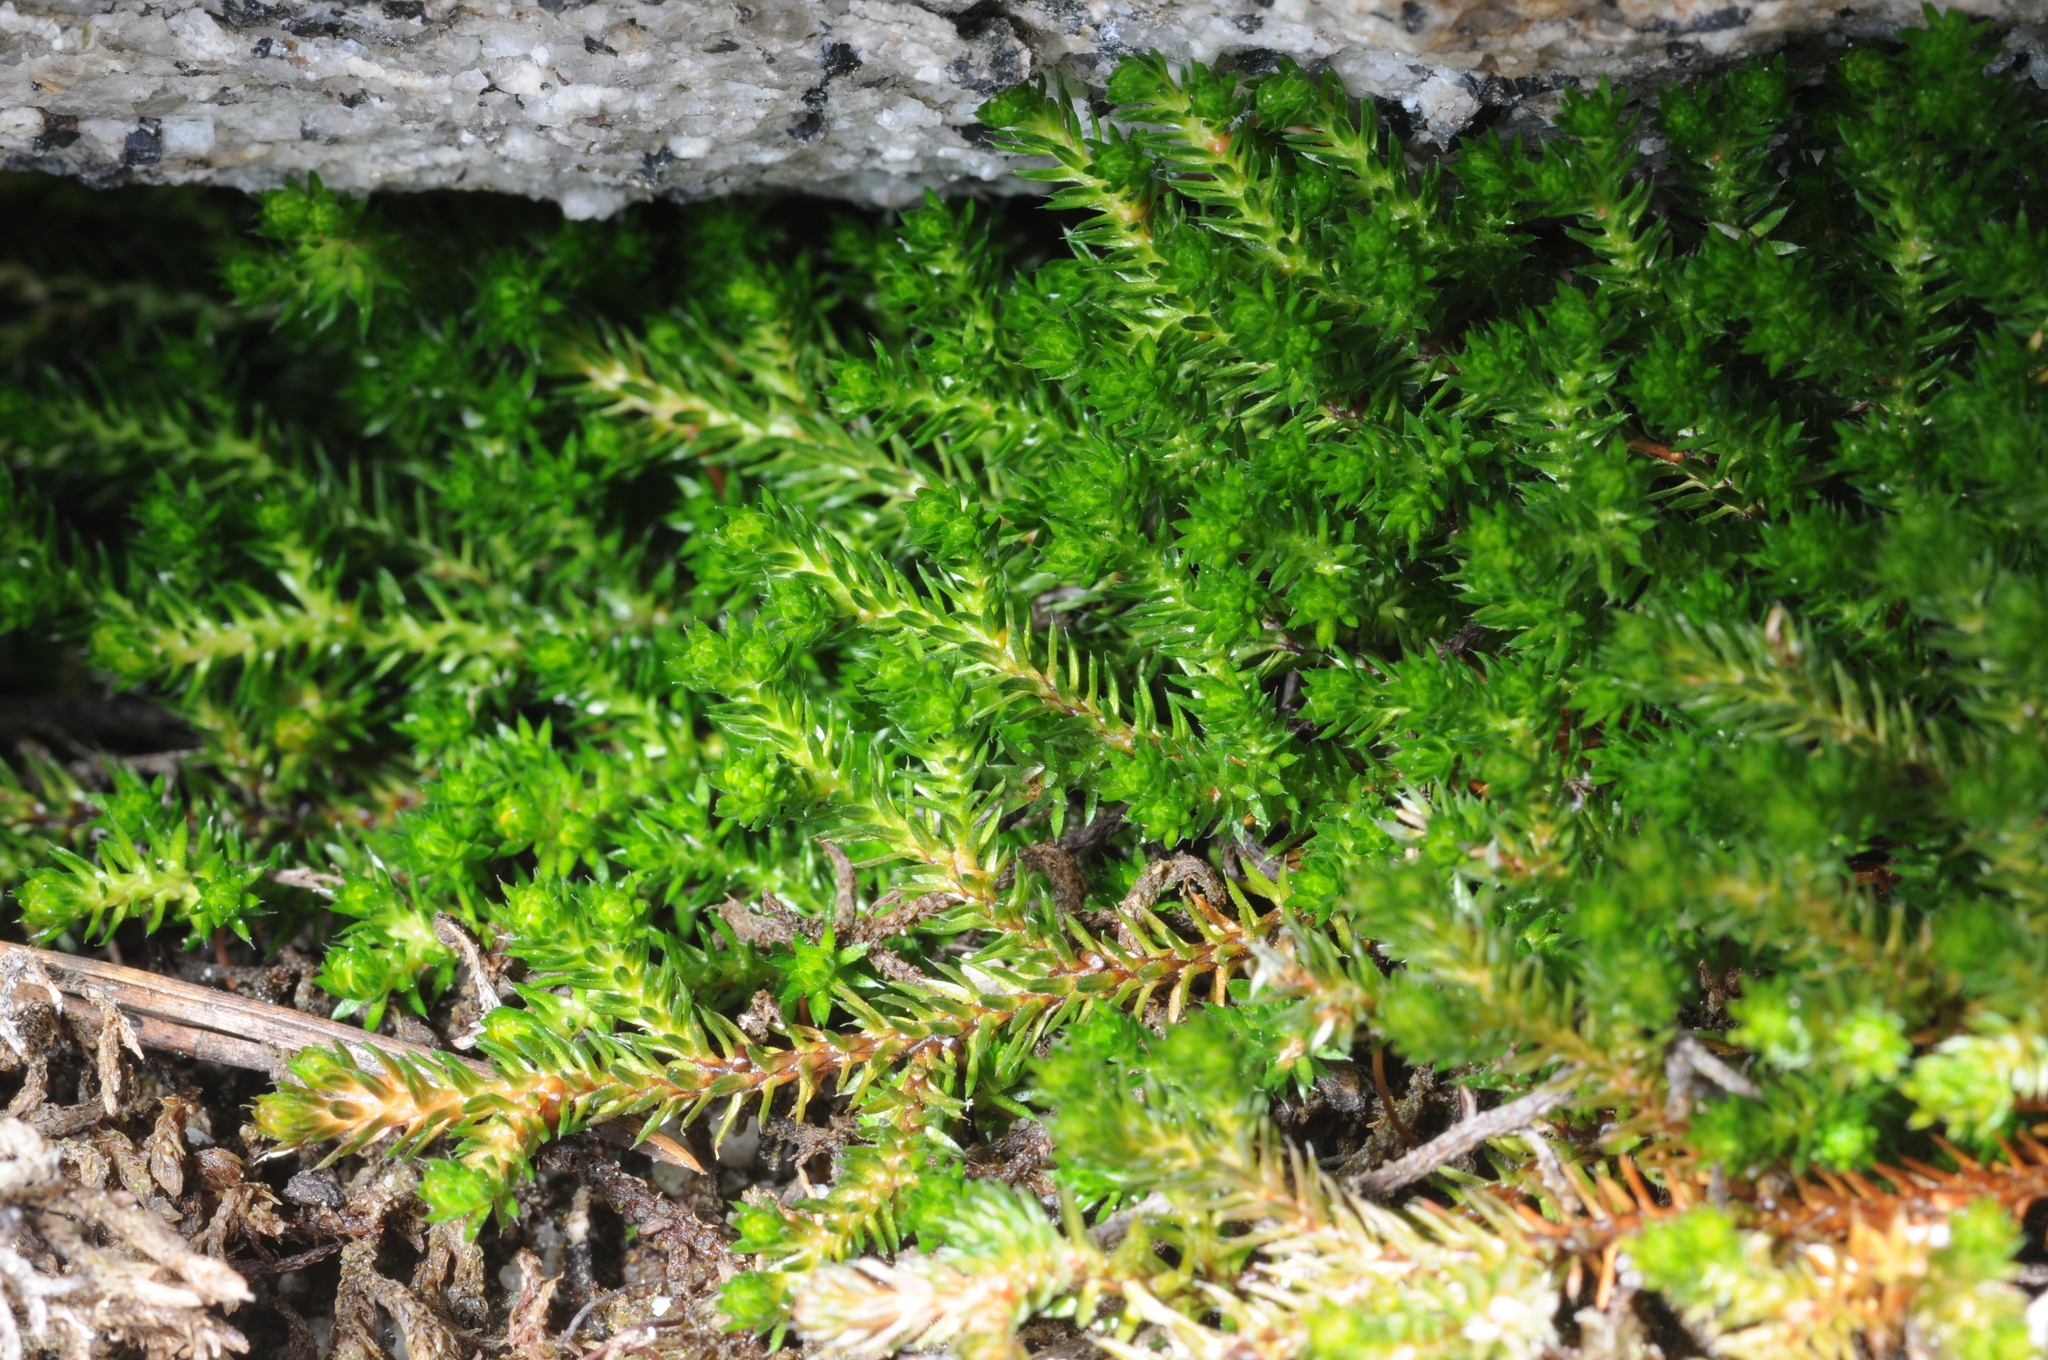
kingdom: Plantae
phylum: Tracheophyta
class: Lycopodiopsida
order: Selaginellales
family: Selaginellaceae
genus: Selaginella
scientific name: Selaginella watsonii
